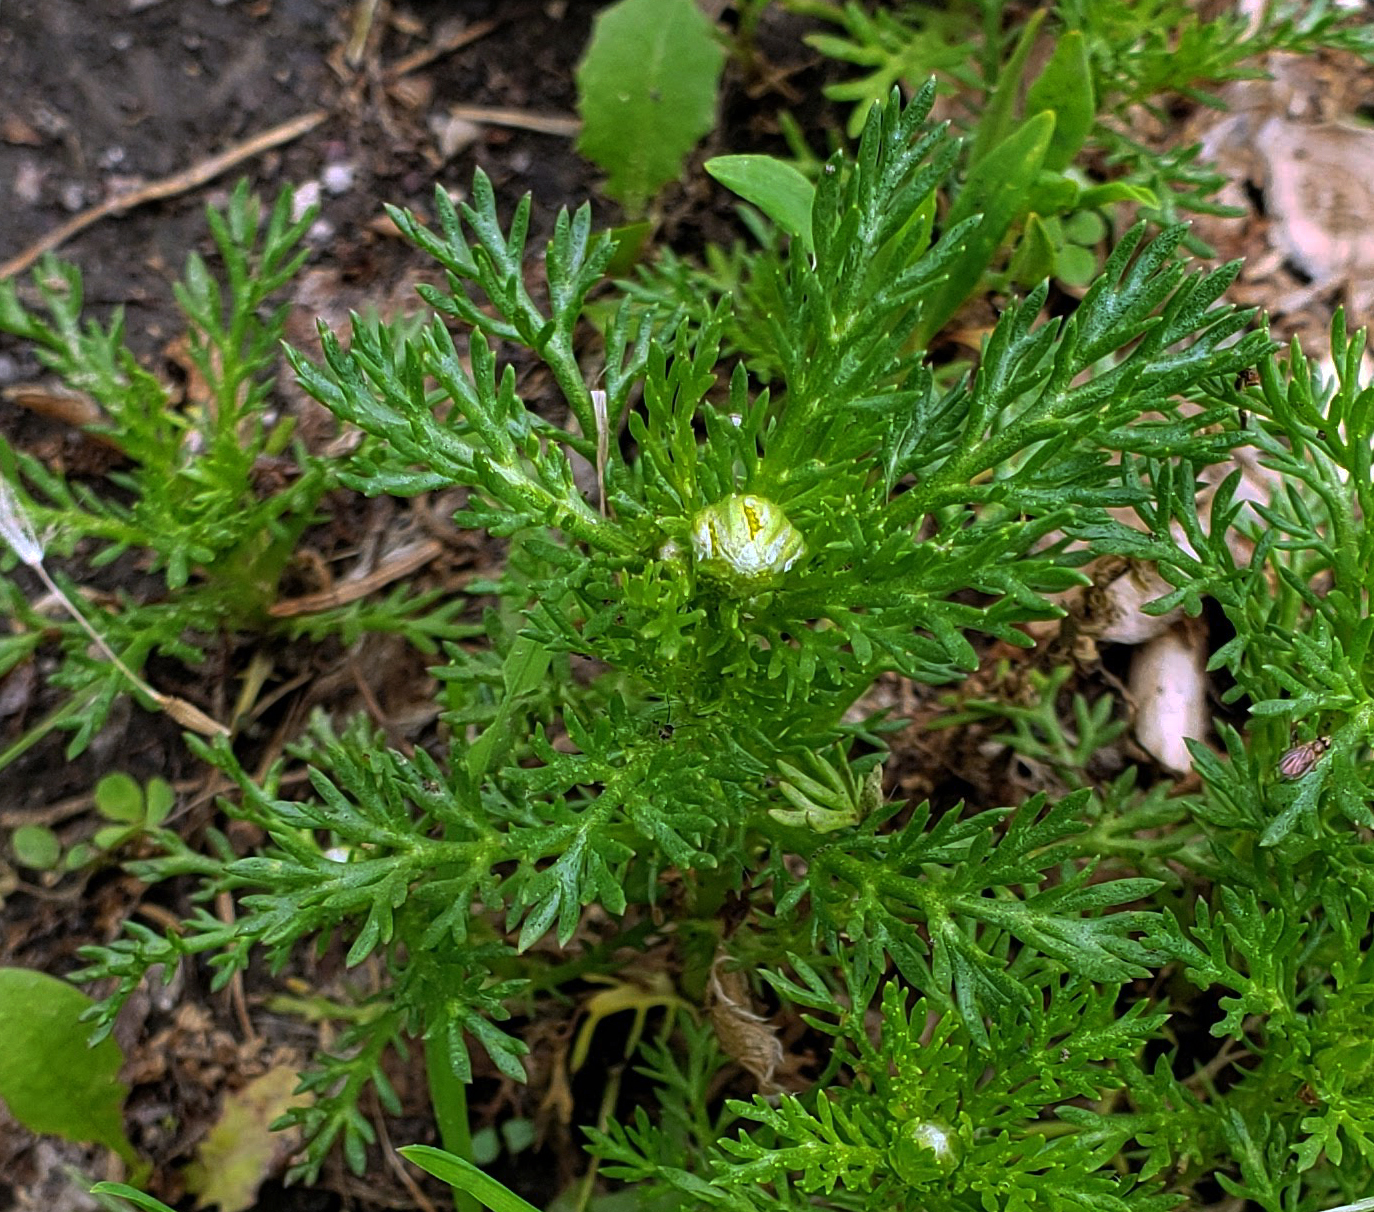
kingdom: Plantae
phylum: Tracheophyta
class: Magnoliopsida
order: Asterales
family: Asteraceae
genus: Matricaria
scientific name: Matricaria discoidea
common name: Disc mayweed
